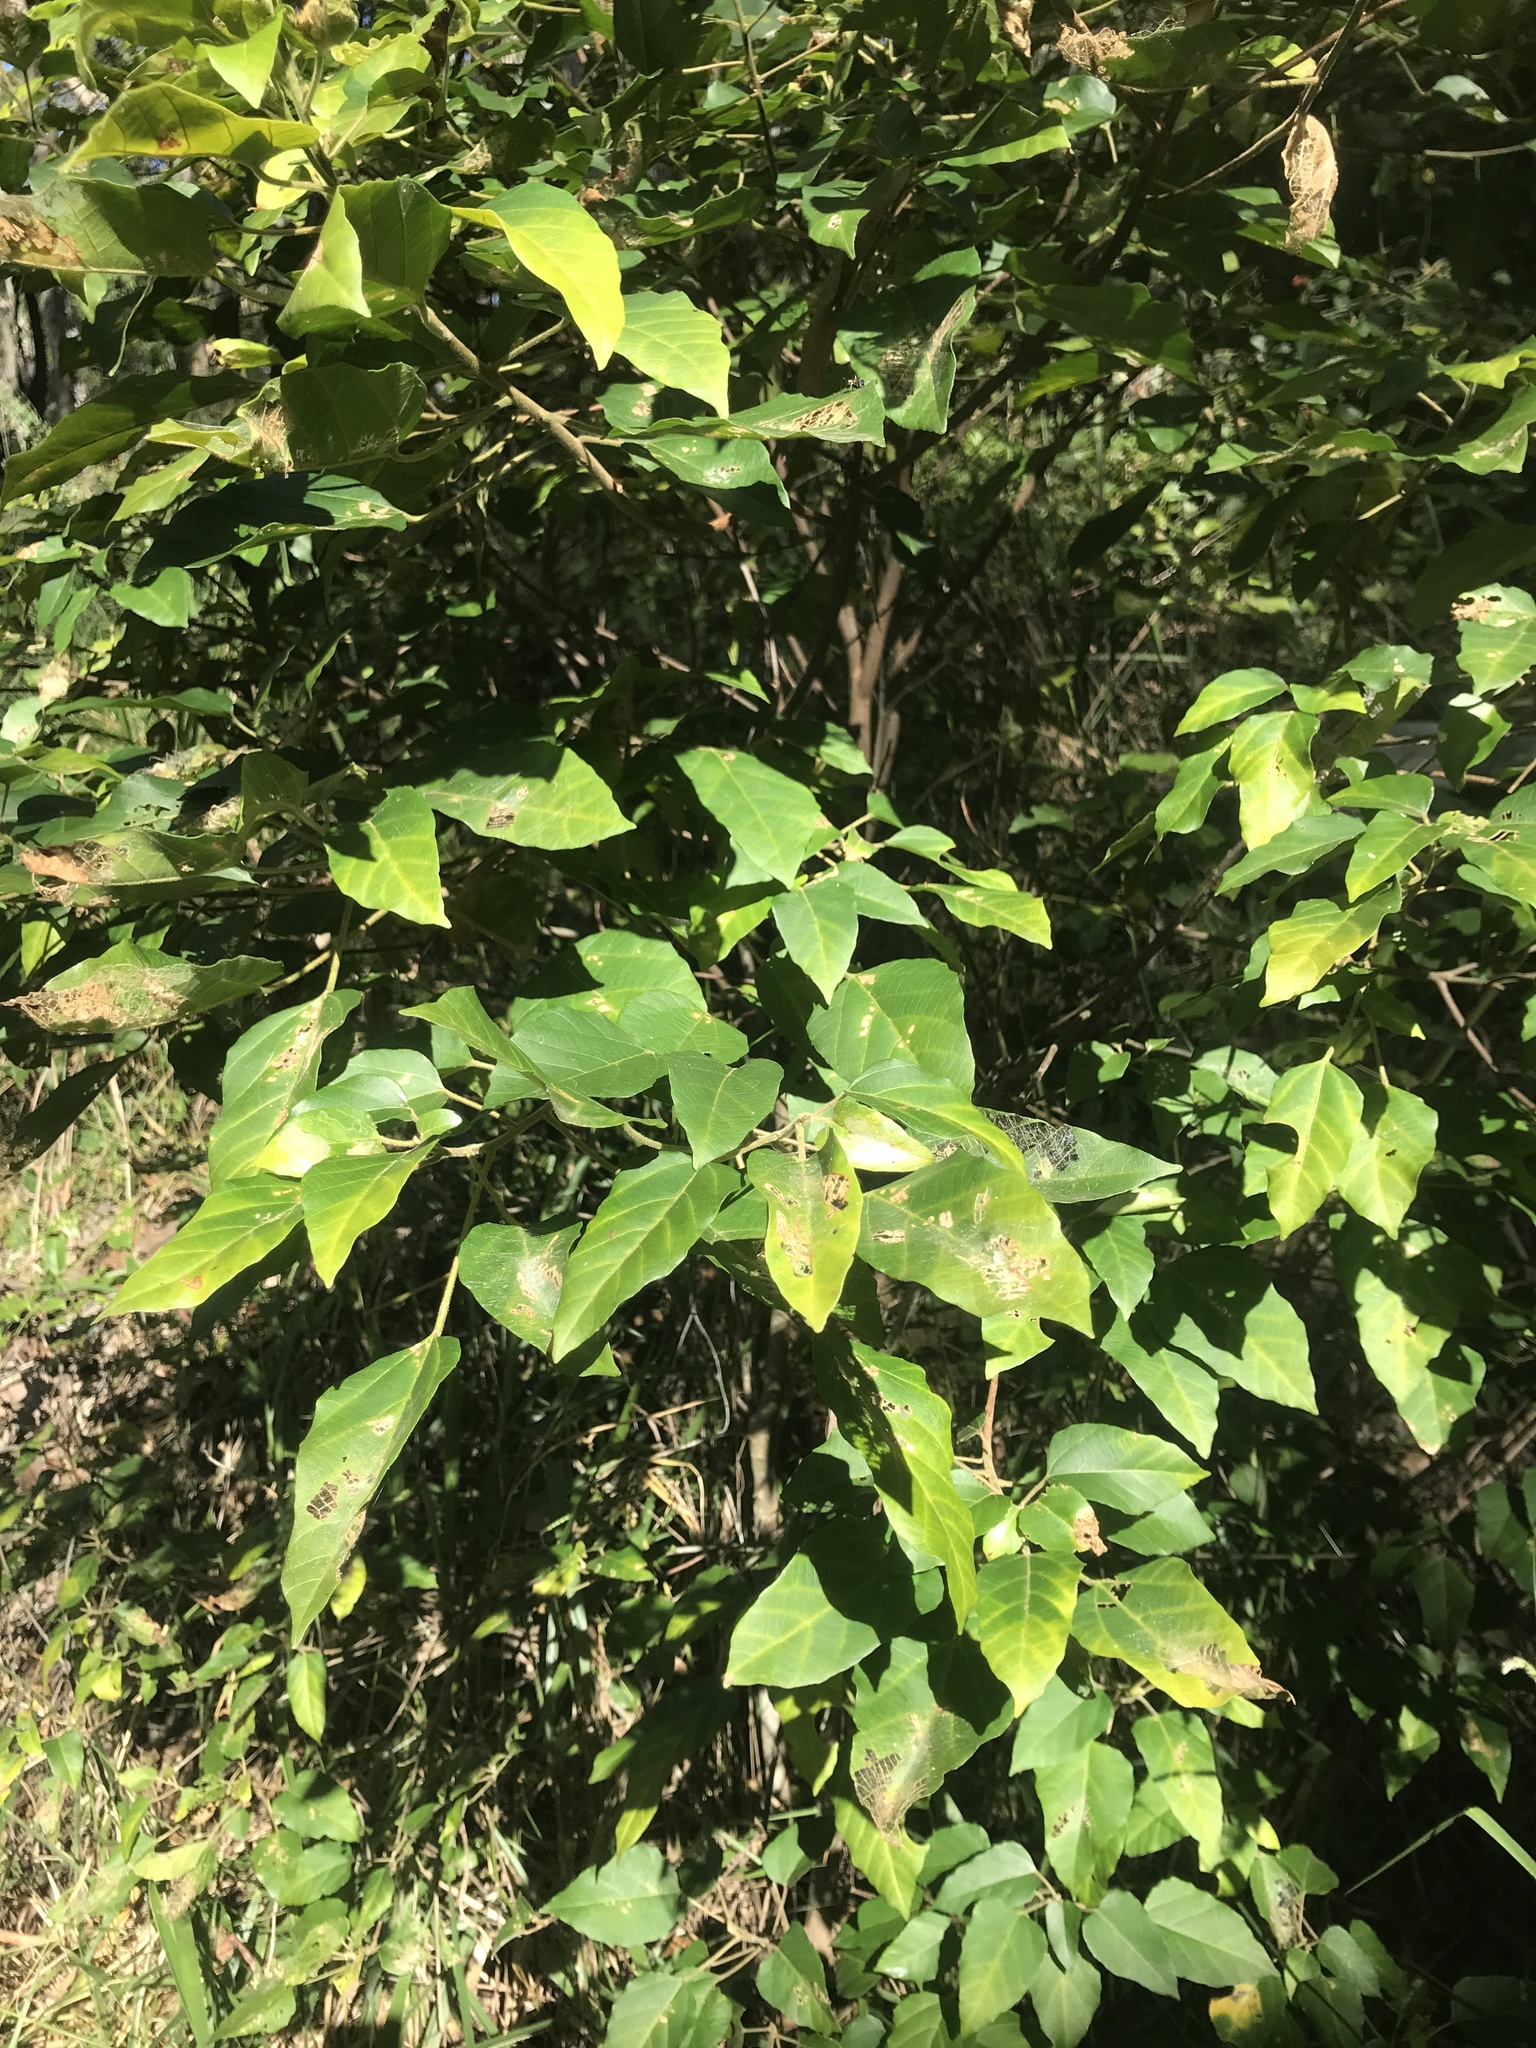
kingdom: Plantae
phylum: Tracheophyta
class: Magnoliopsida
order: Malpighiales
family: Euphorbiaceae
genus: Mallotus
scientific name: Mallotus discolor
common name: White kamala
